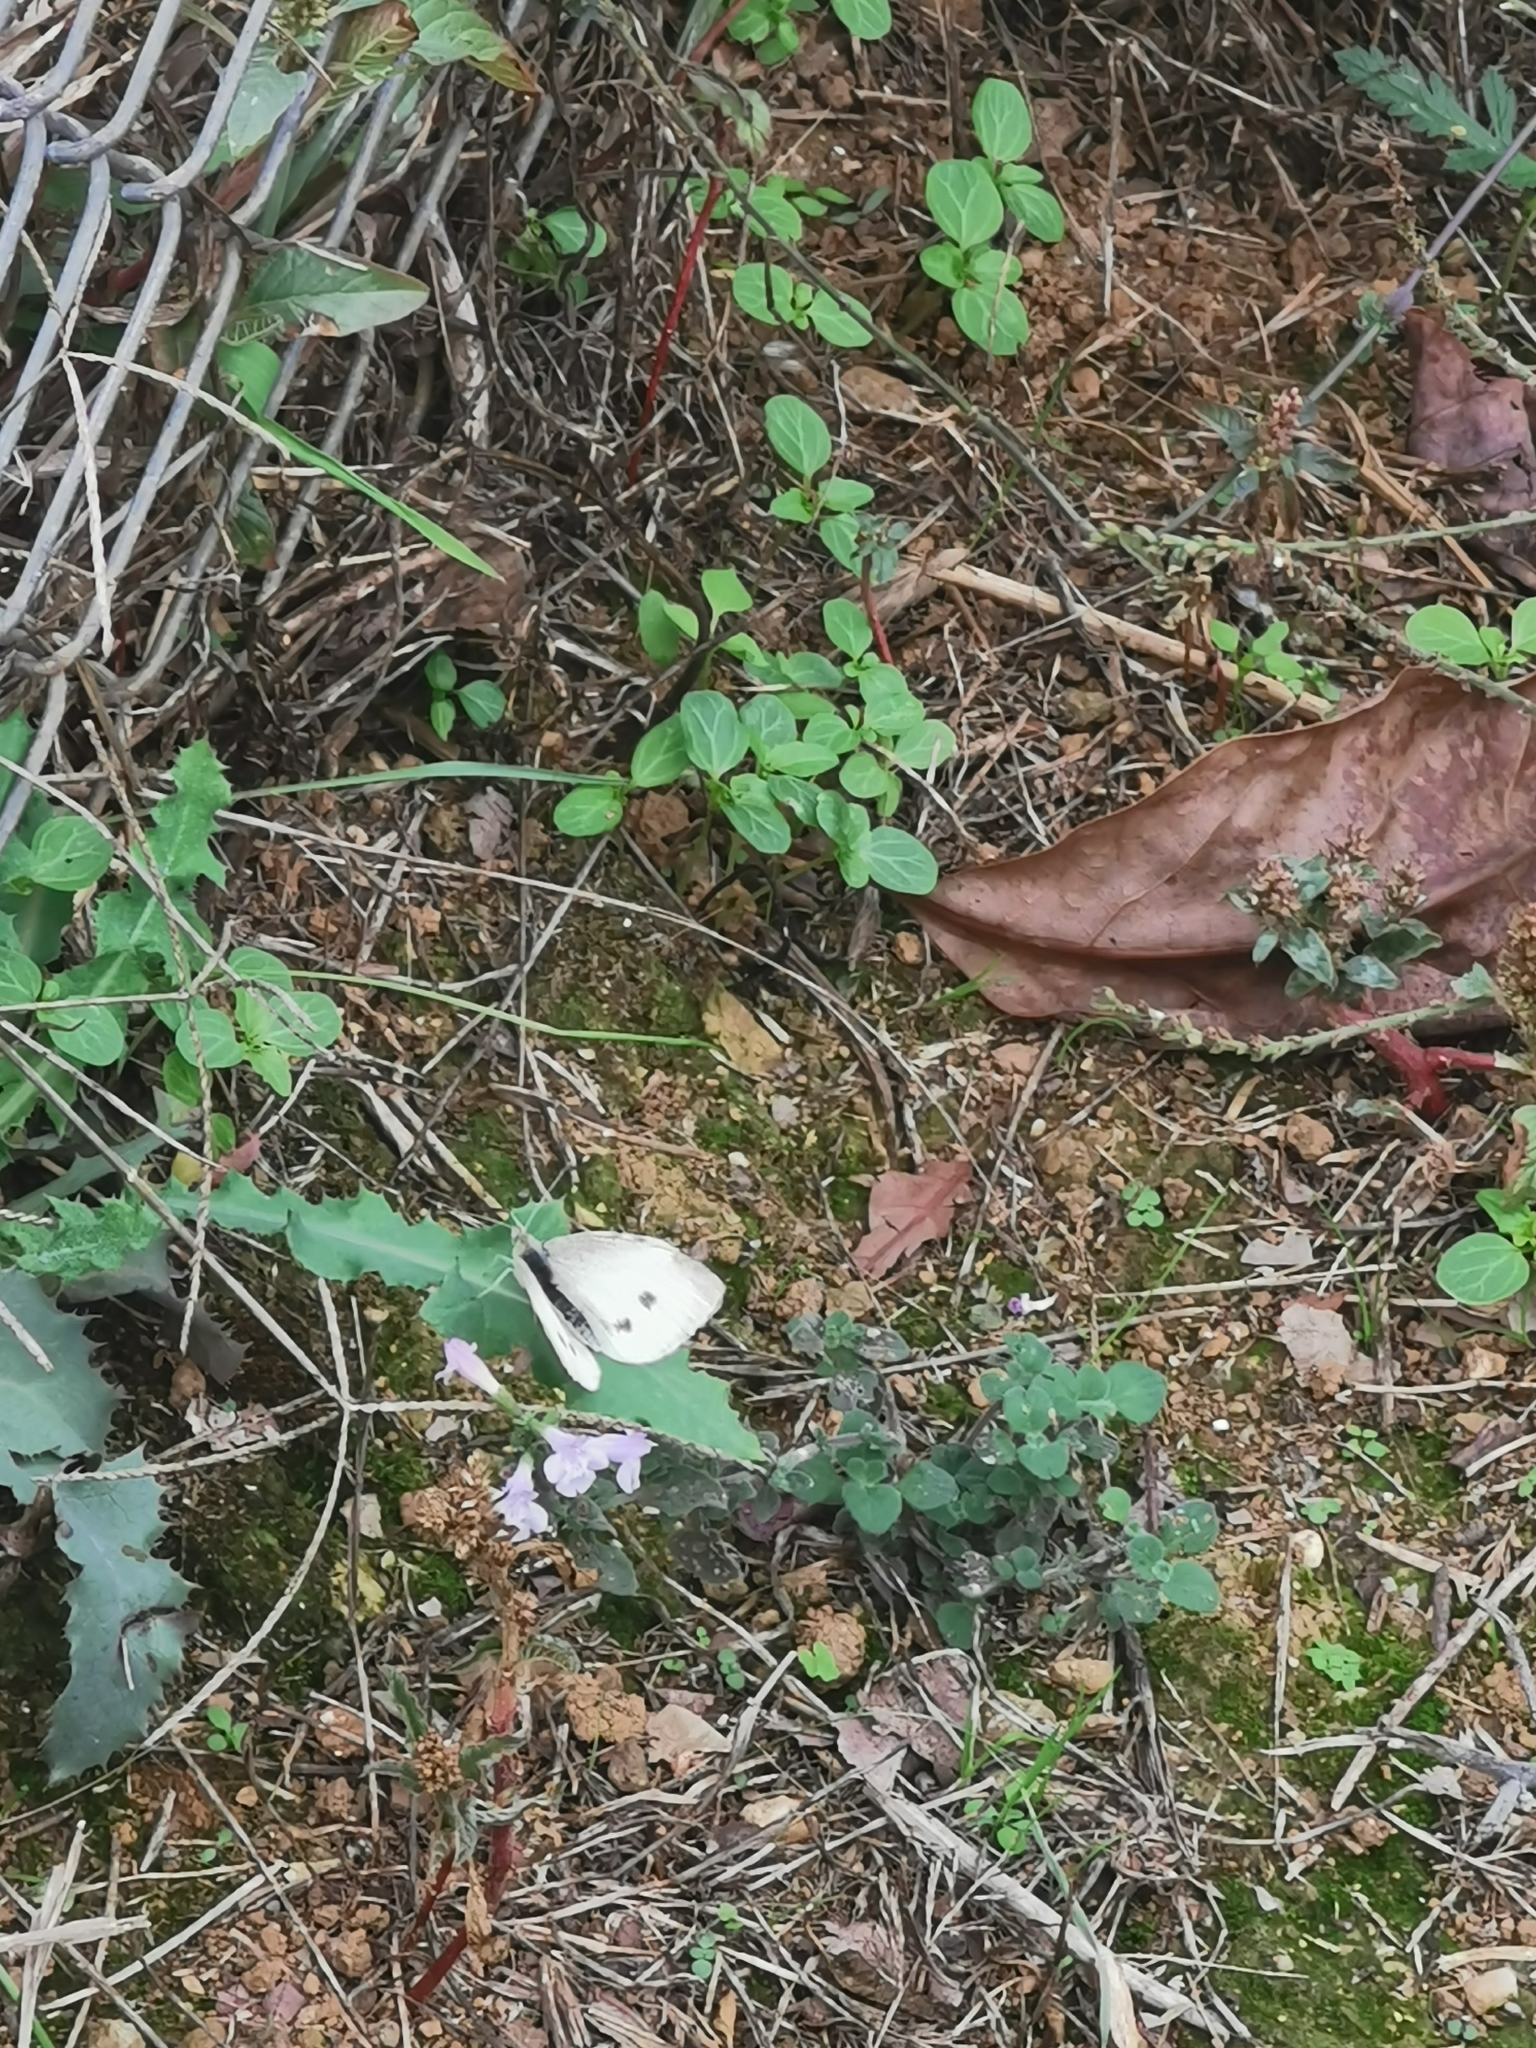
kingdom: Animalia
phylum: Arthropoda
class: Insecta
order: Lepidoptera
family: Pieridae
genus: Pieris
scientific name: Pieris rapae
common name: Small white
